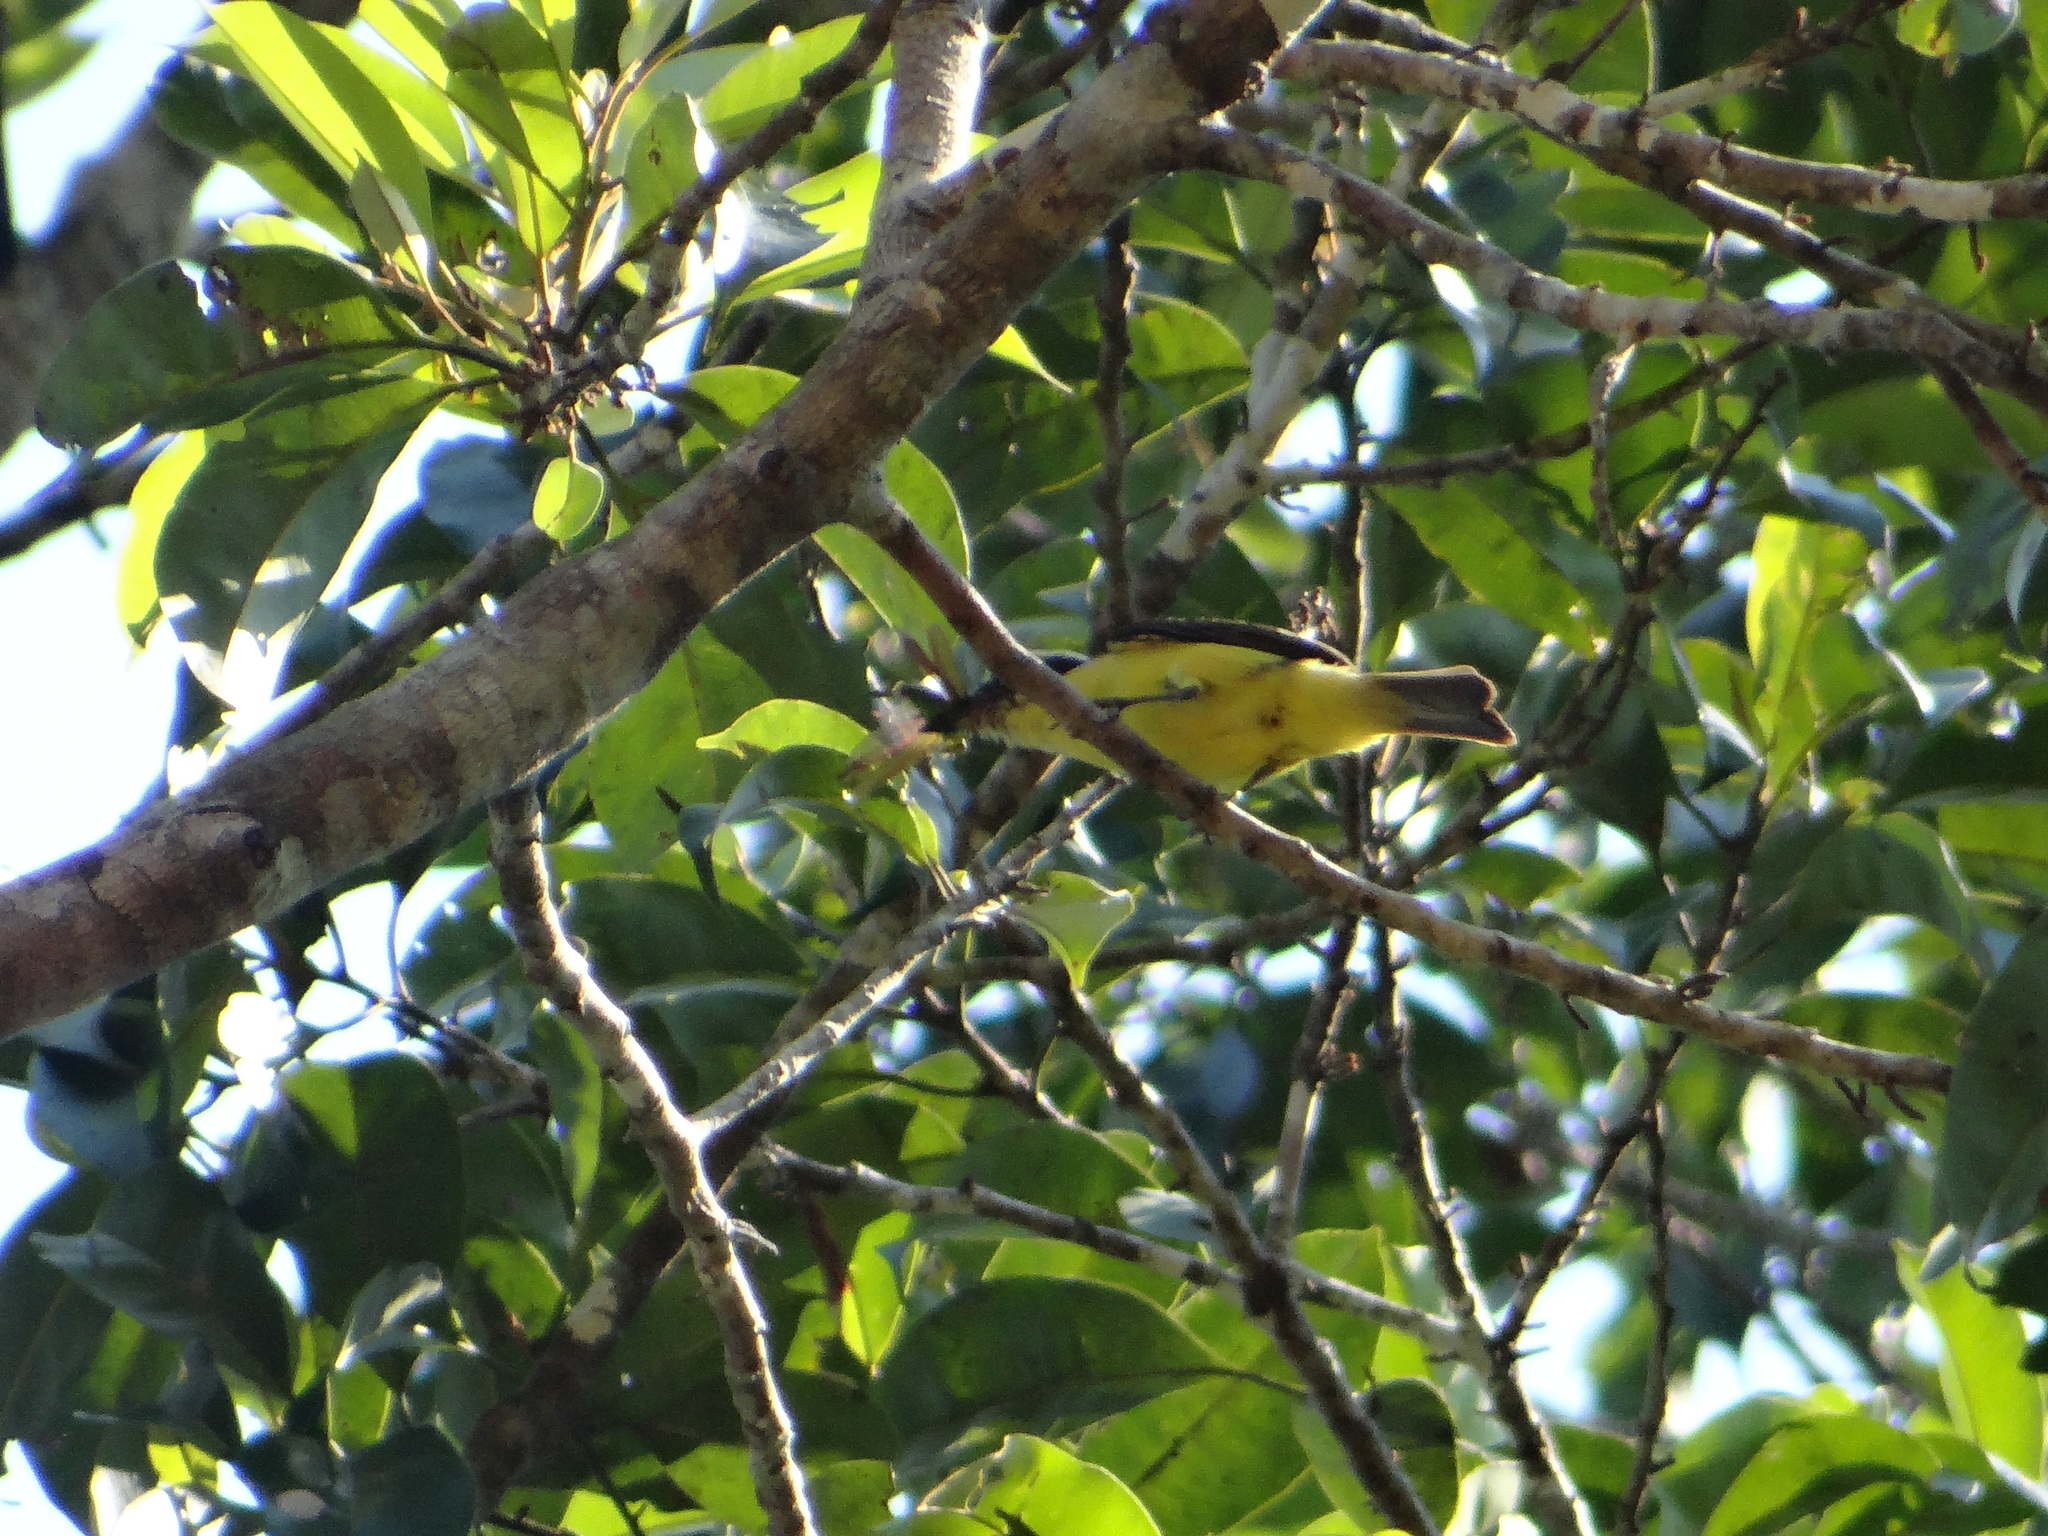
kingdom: Animalia
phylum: Chordata
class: Aves
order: Passeriformes
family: Tyrannidae
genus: Megarynchus
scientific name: Megarynchus pitangua
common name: Boat-billed flycatcher
